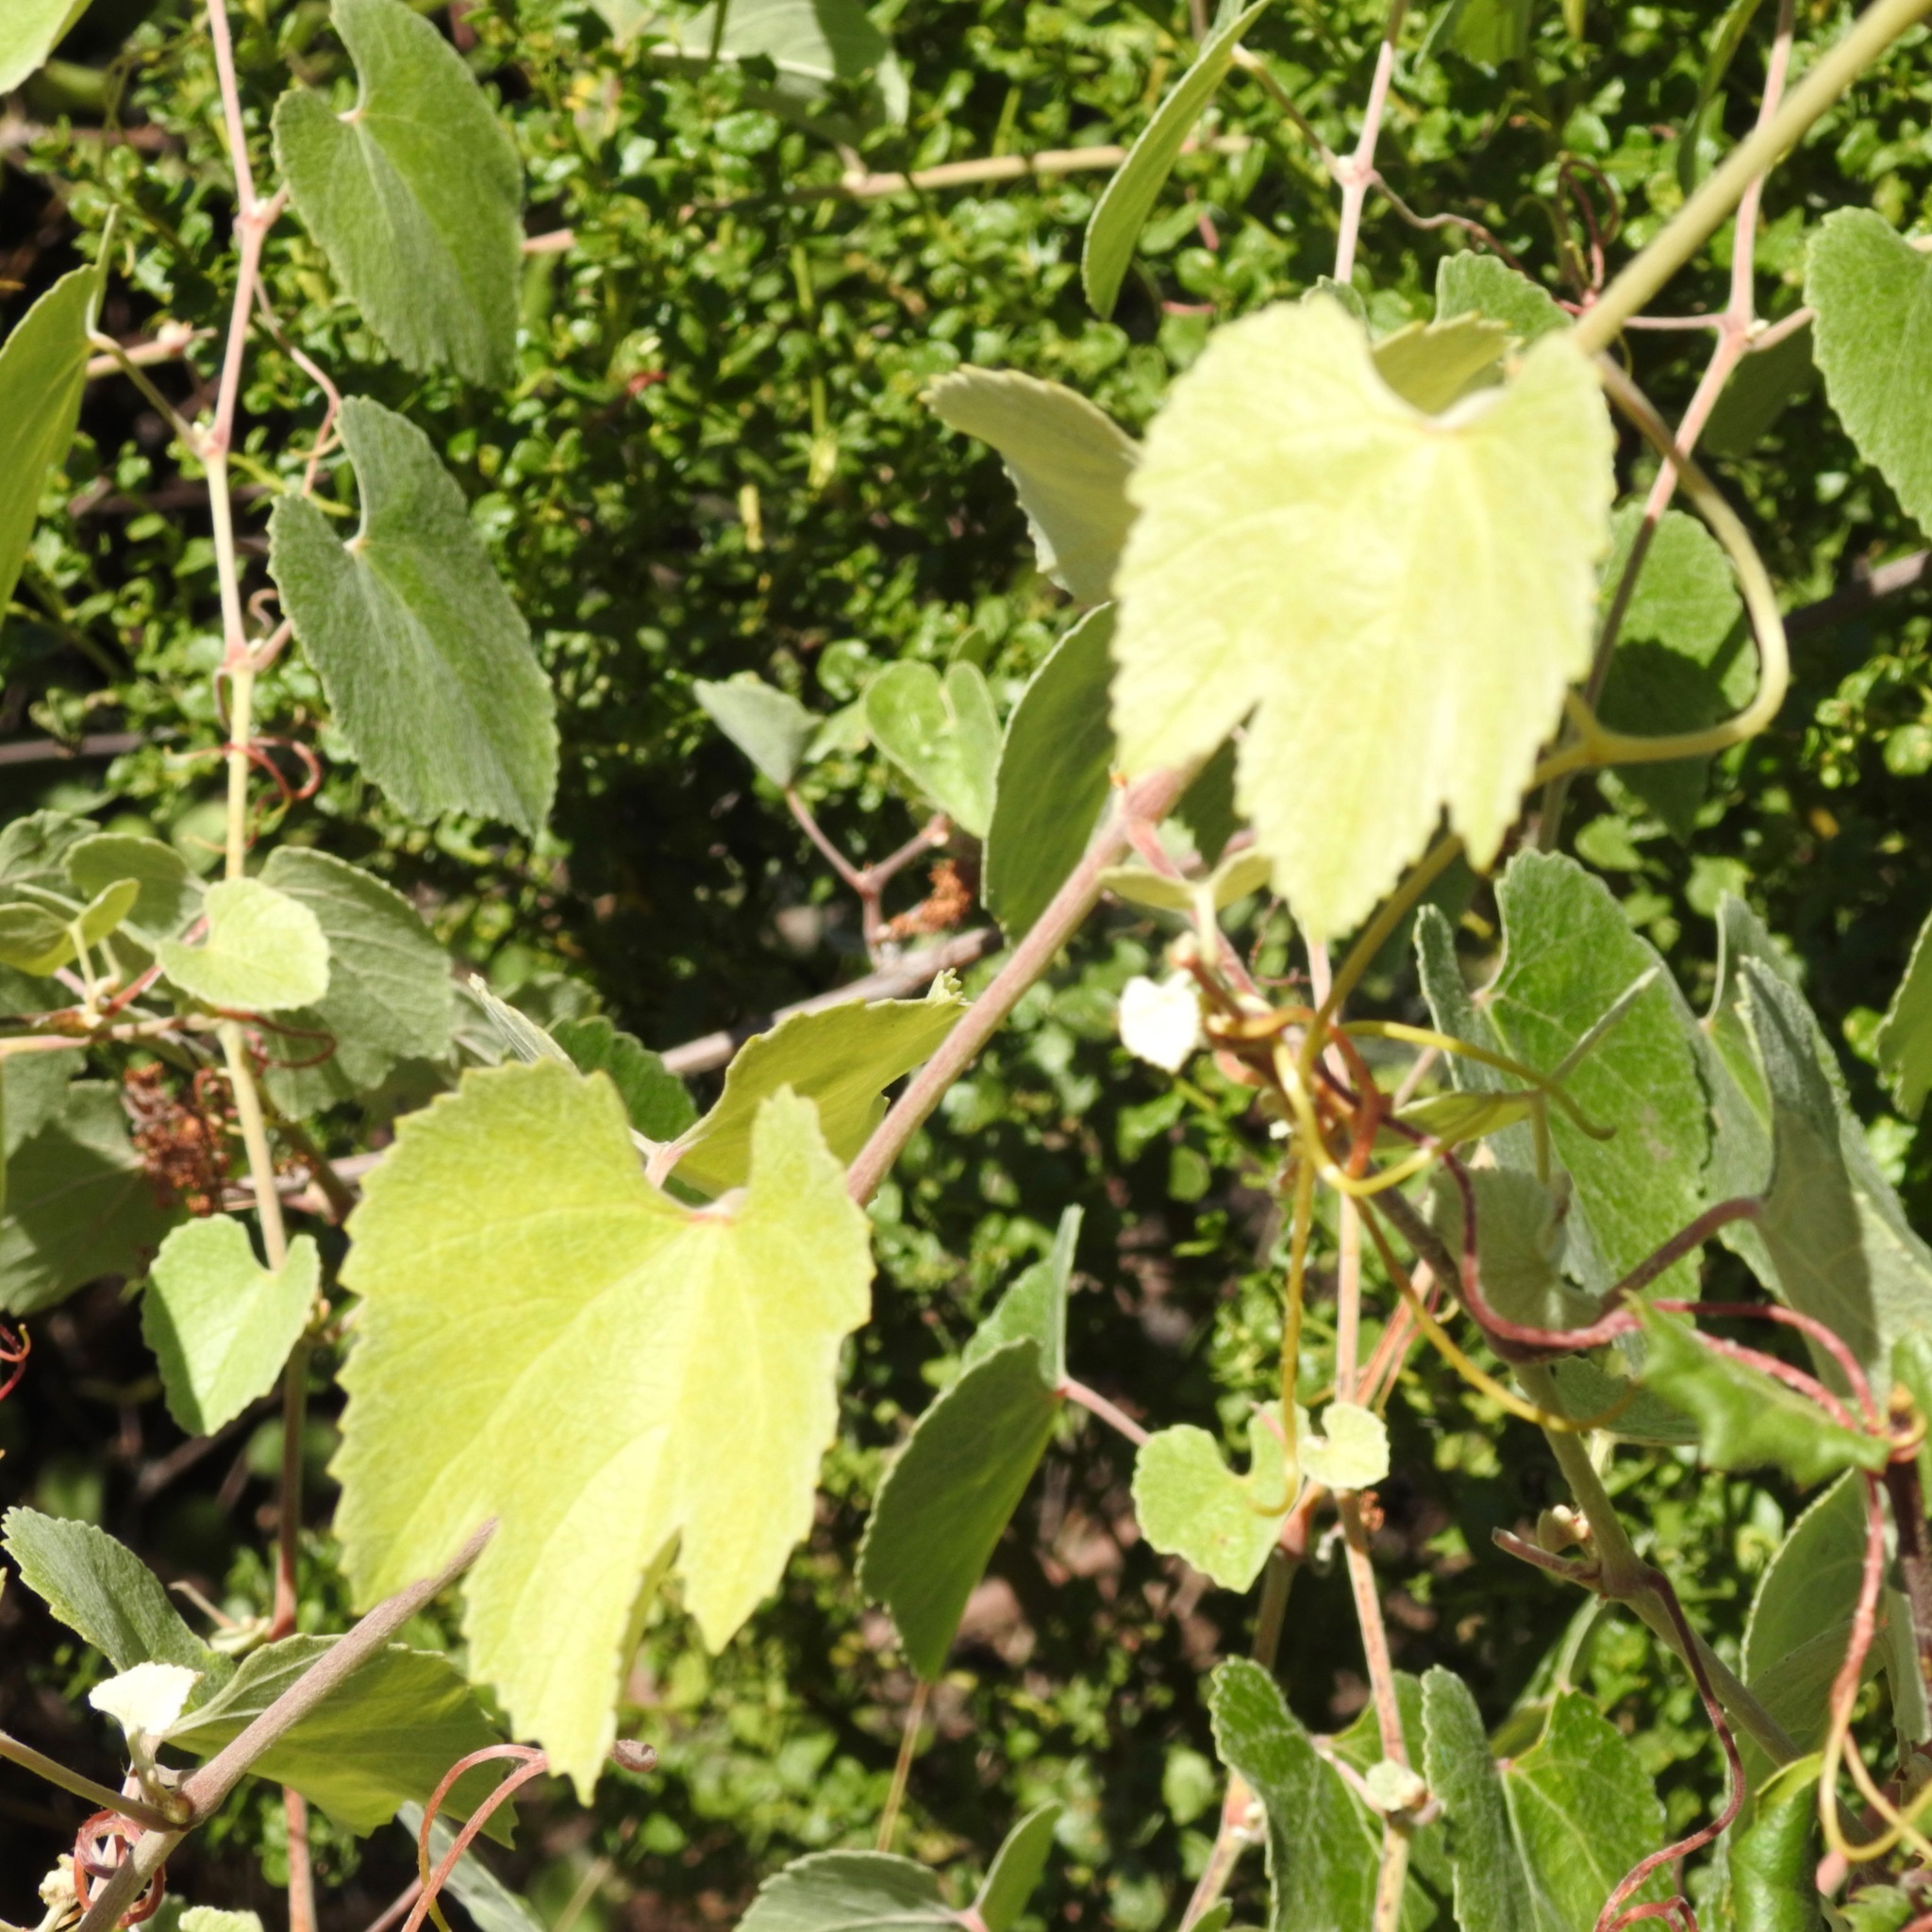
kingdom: Plantae
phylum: Tracheophyta
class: Magnoliopsida
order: Vitales
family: Vitaceae
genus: Vitis
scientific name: Vitis californica
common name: California wild grape
